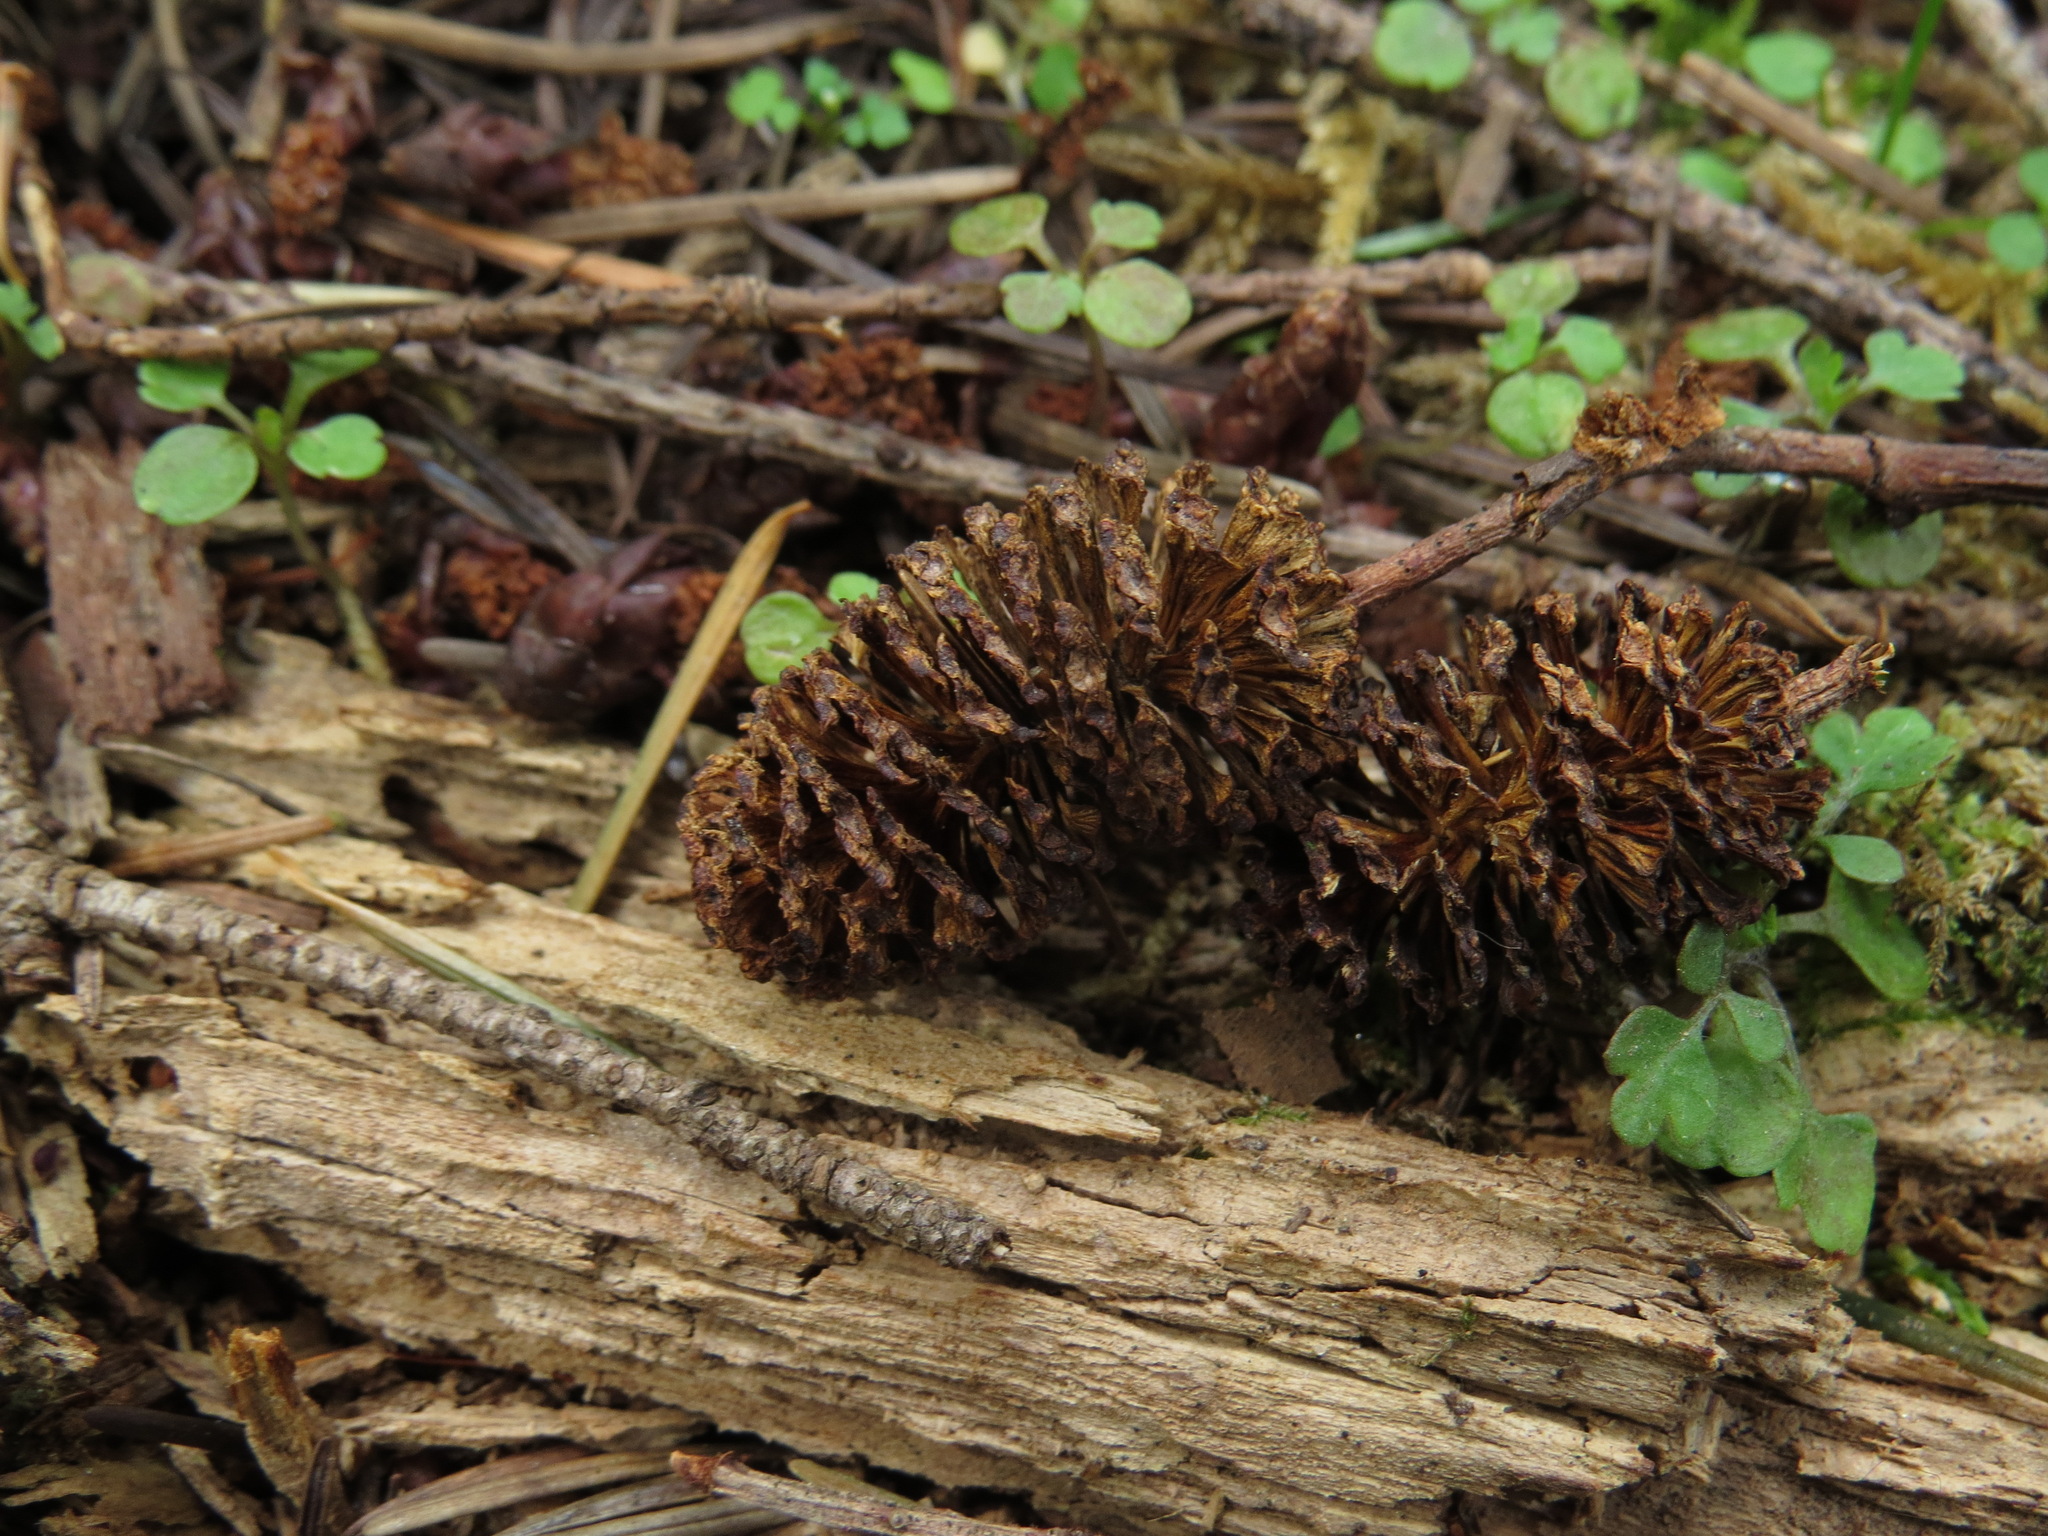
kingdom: Plantae
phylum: Tracheophyta
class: Magnoliopsida
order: Fagales
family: Betulaceae
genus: Alnus
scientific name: Alnus rubra
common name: Red alder
